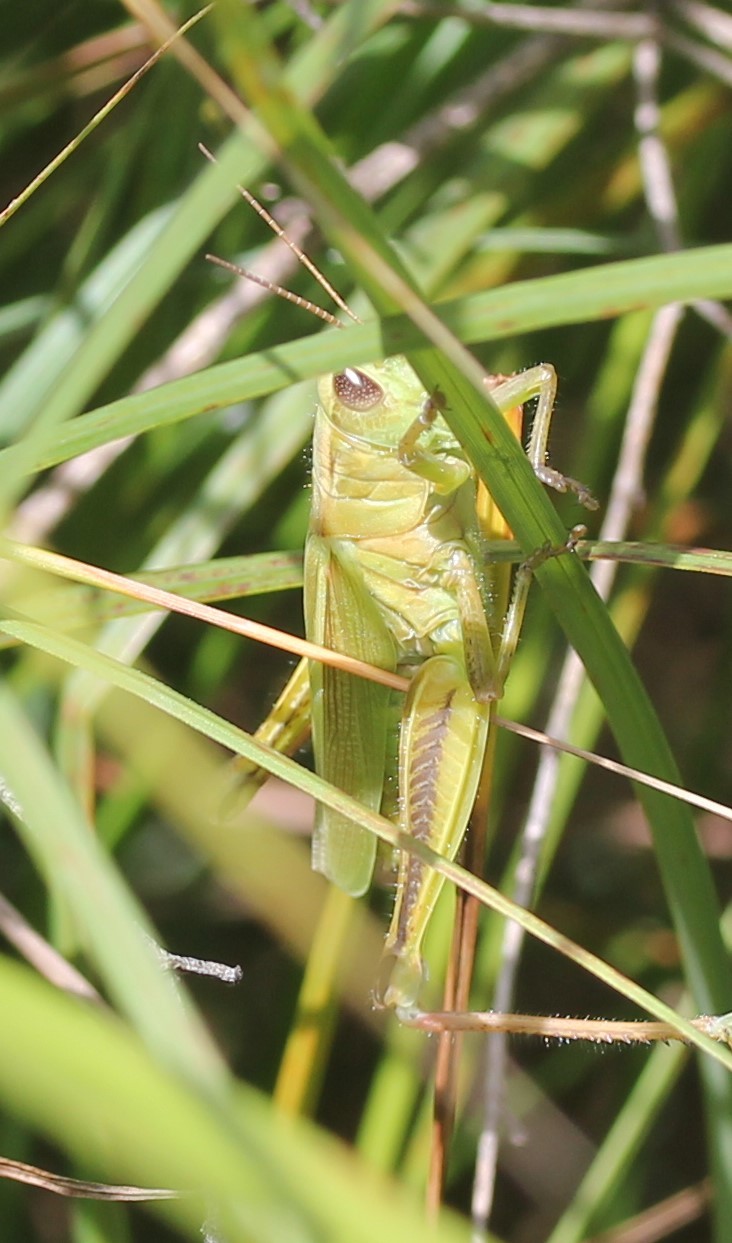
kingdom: Animalia
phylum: Arthropoda
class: Insecta
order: Orthoptera
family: Acrididae
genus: Melanoplus
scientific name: Melanoplus bivittatus
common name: Two-striped grasshopper
